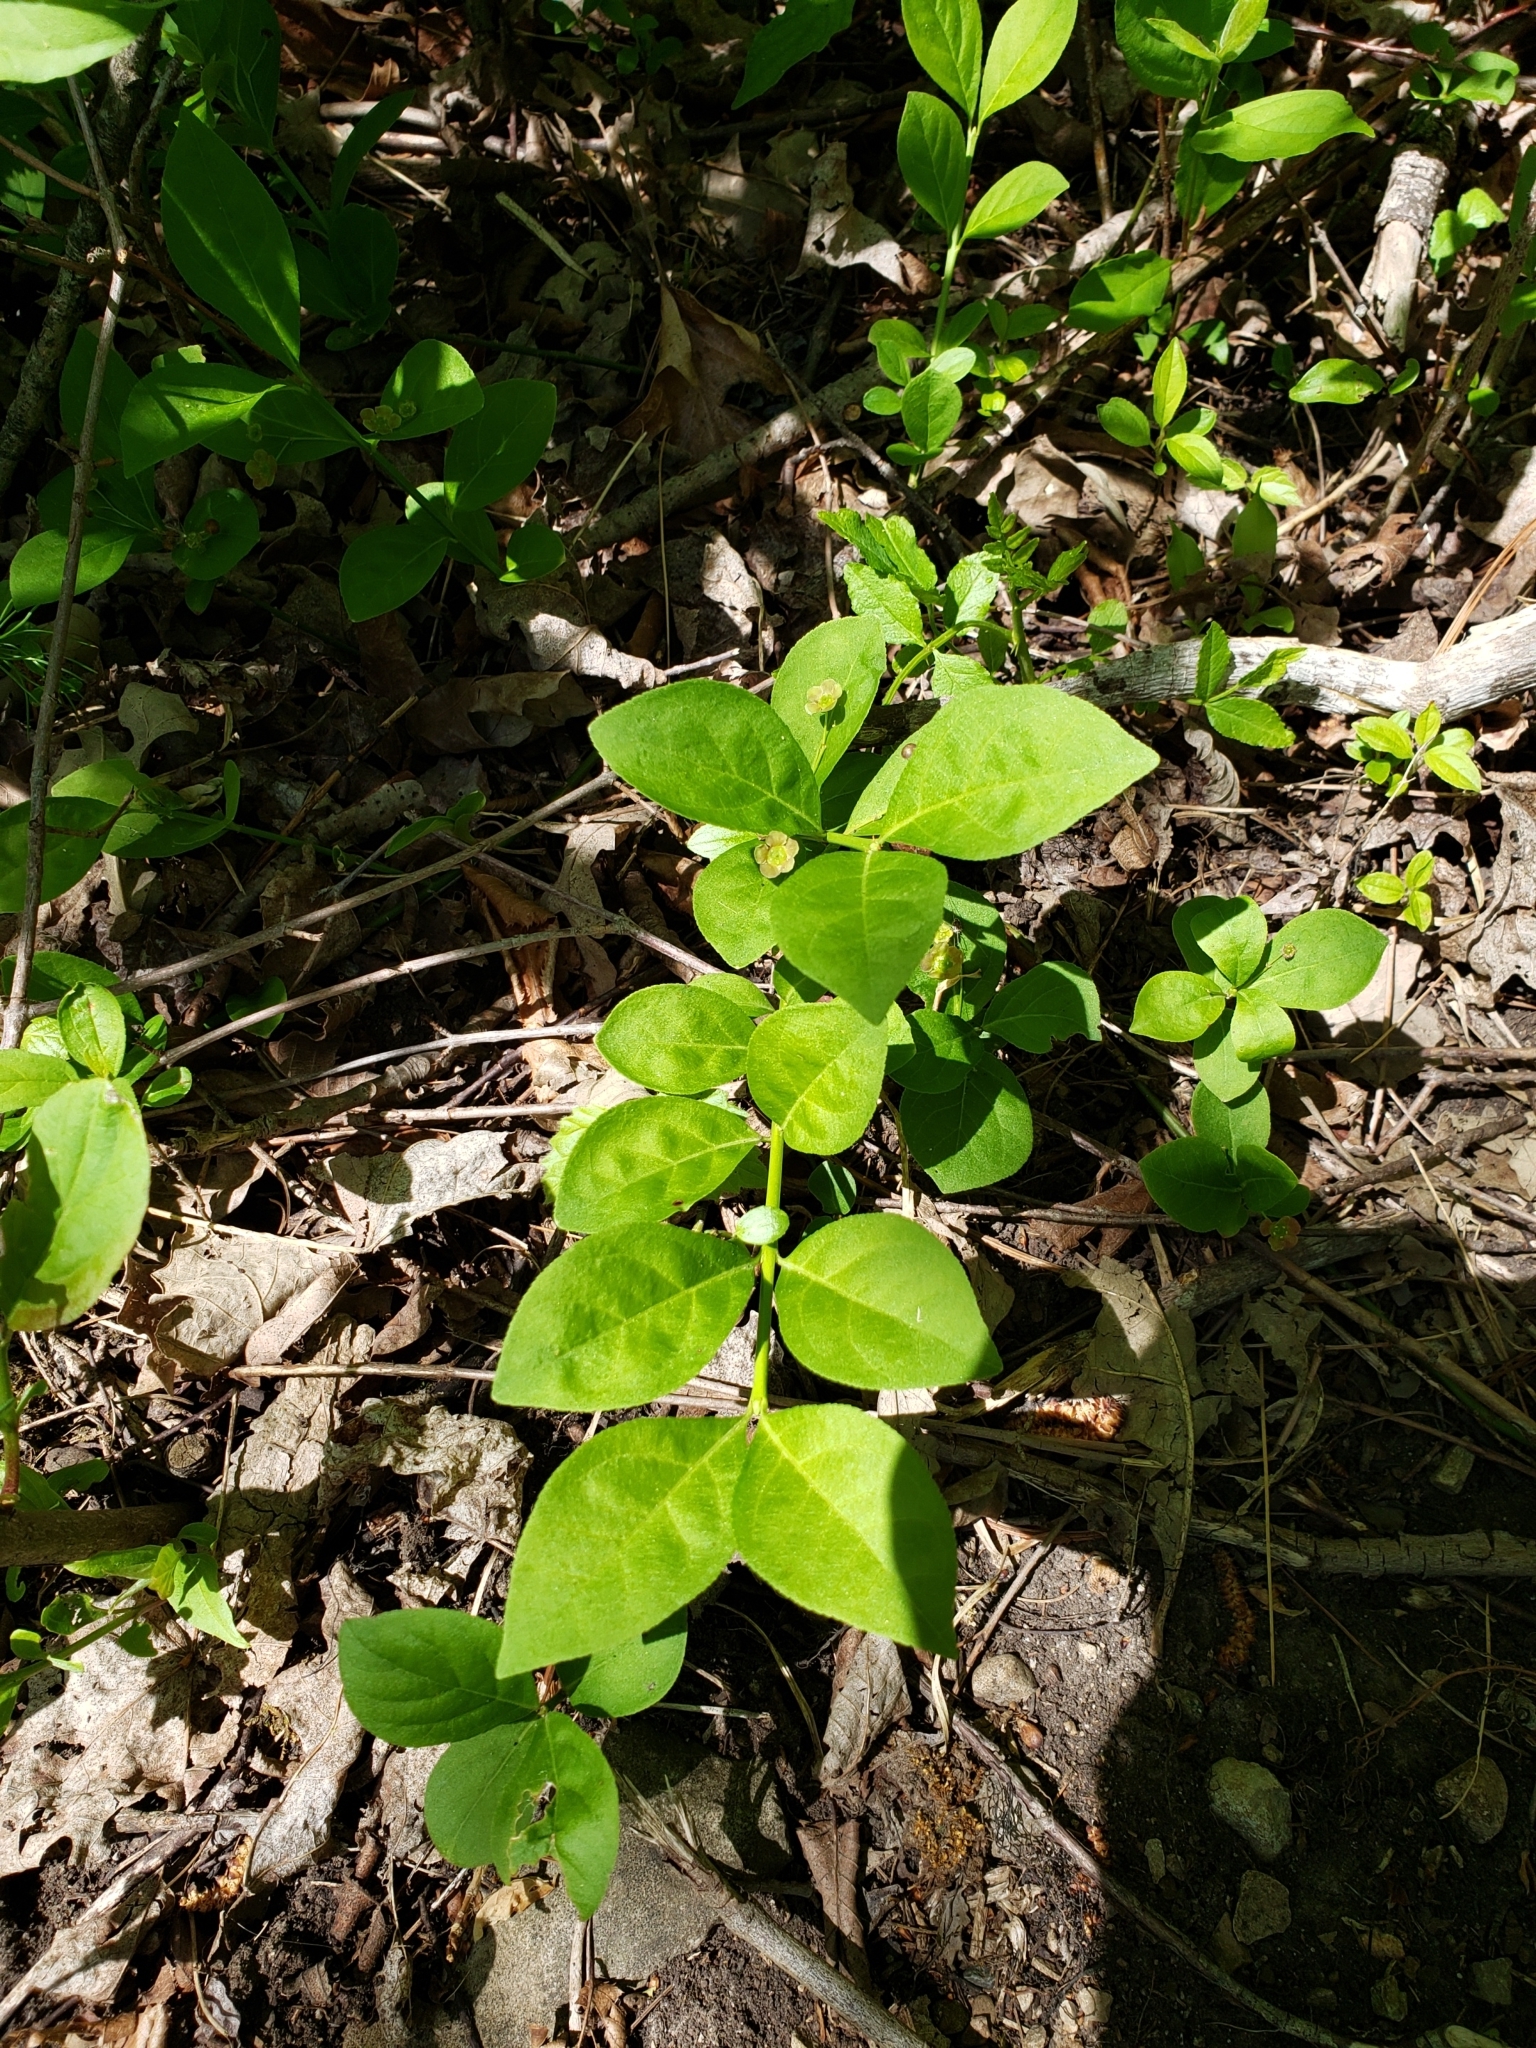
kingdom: Plantae
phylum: Tracheophyta
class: Magnoliopsida
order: Celastrales
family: Celastraceae
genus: Euonymus
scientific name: Euonymus obovatus
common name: Running strawberry-bush
